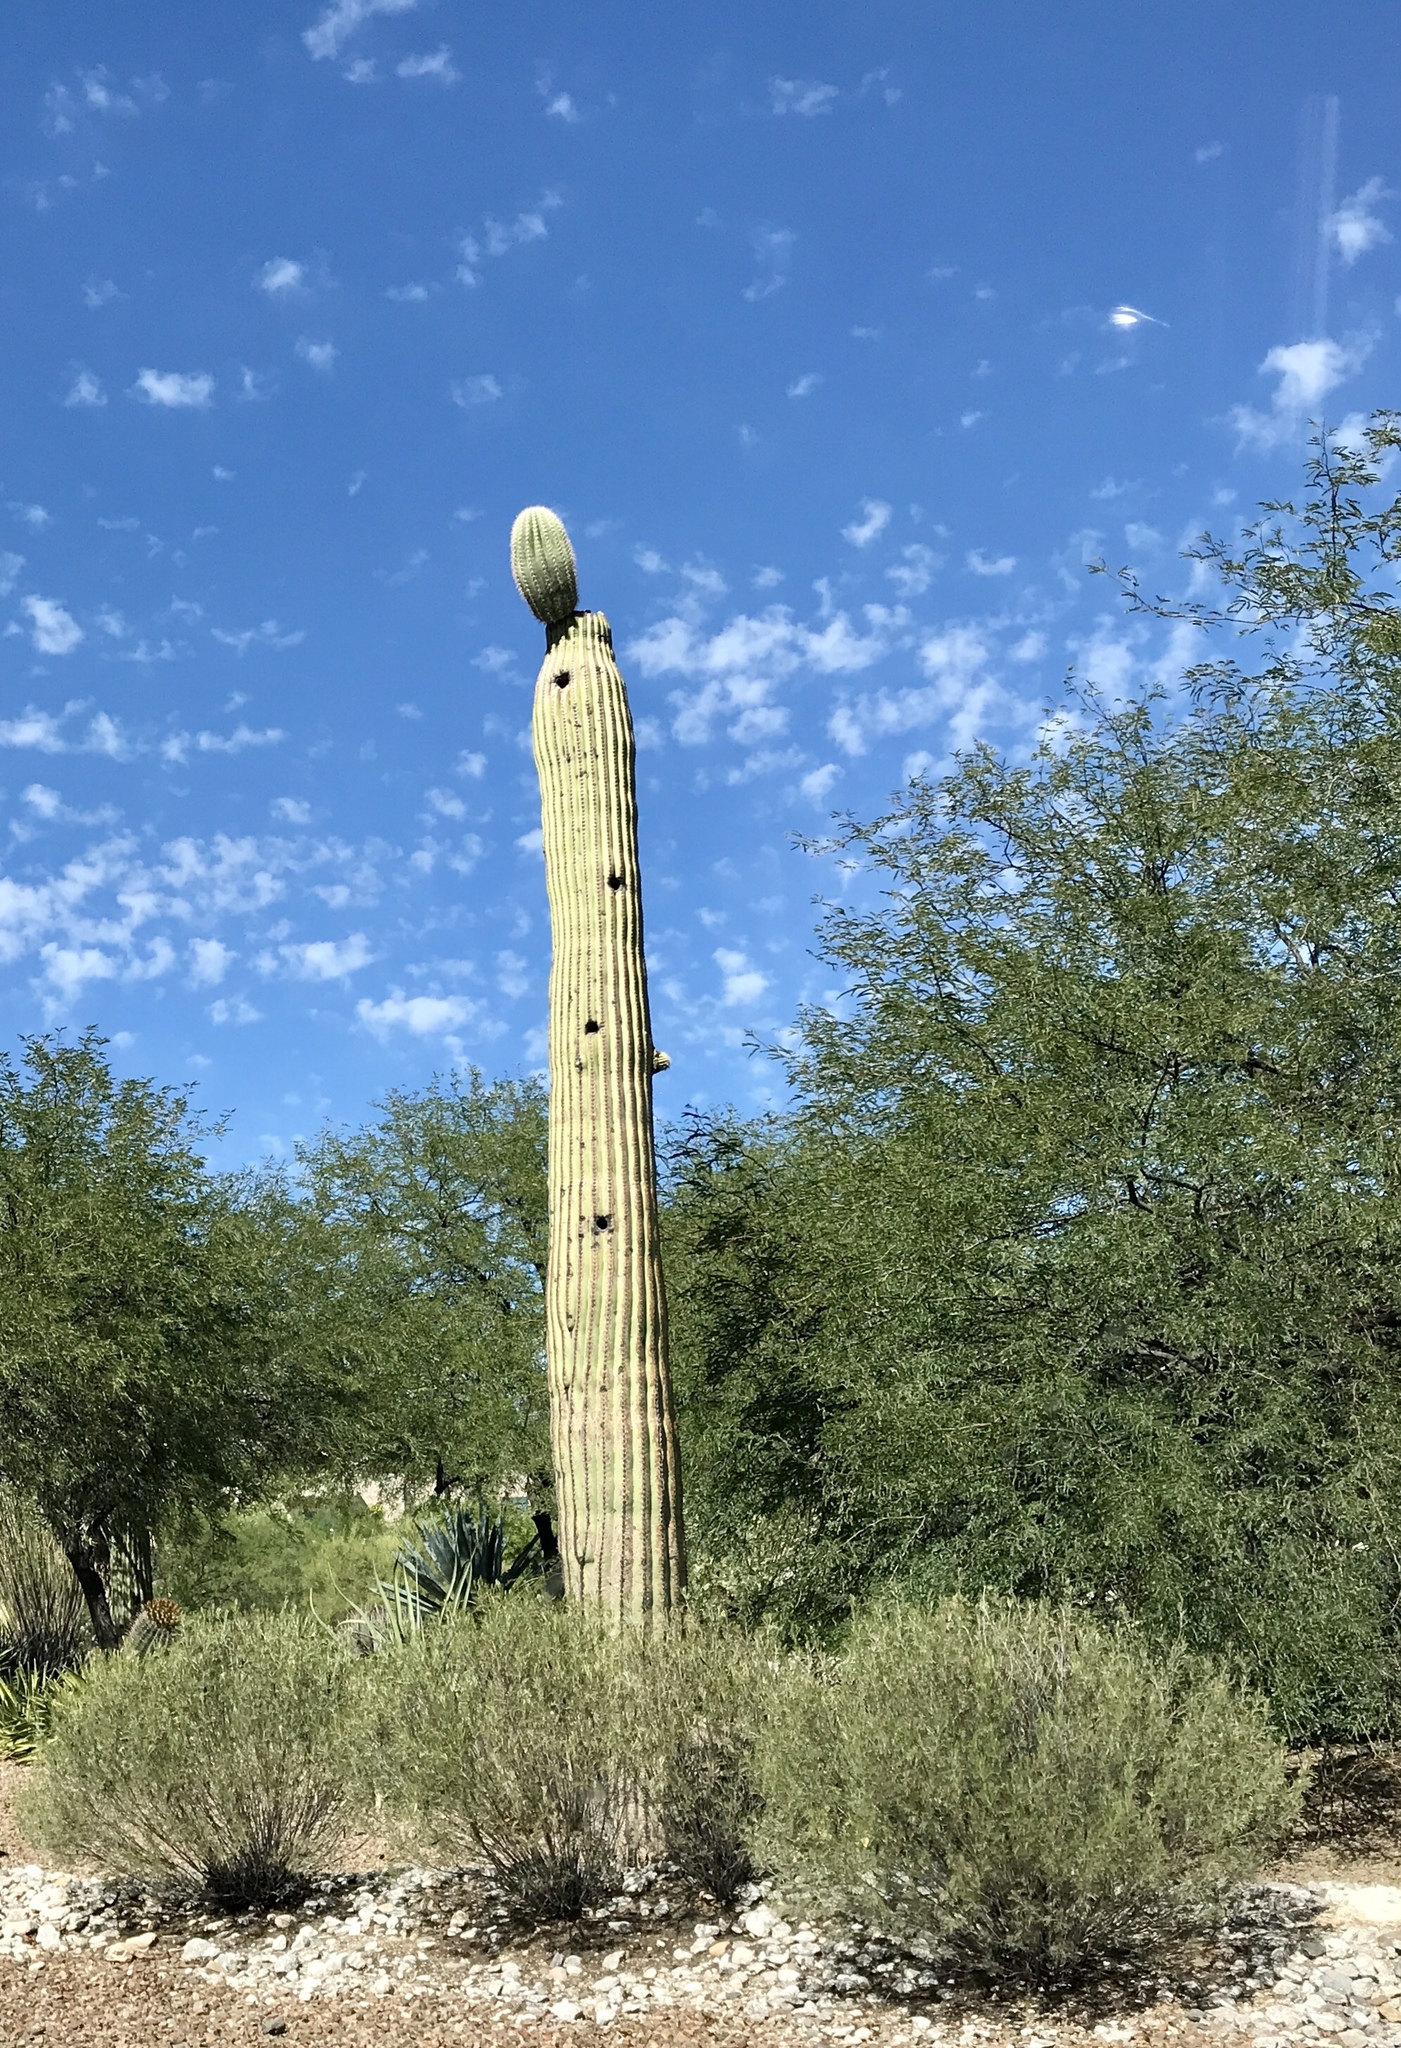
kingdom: Plantae
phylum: Tracheophyta
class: Magnoliopsida
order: Caryophyllales
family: Cactaceae
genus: Carnegiea
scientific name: Carnegiea gigantea
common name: Saguaro
